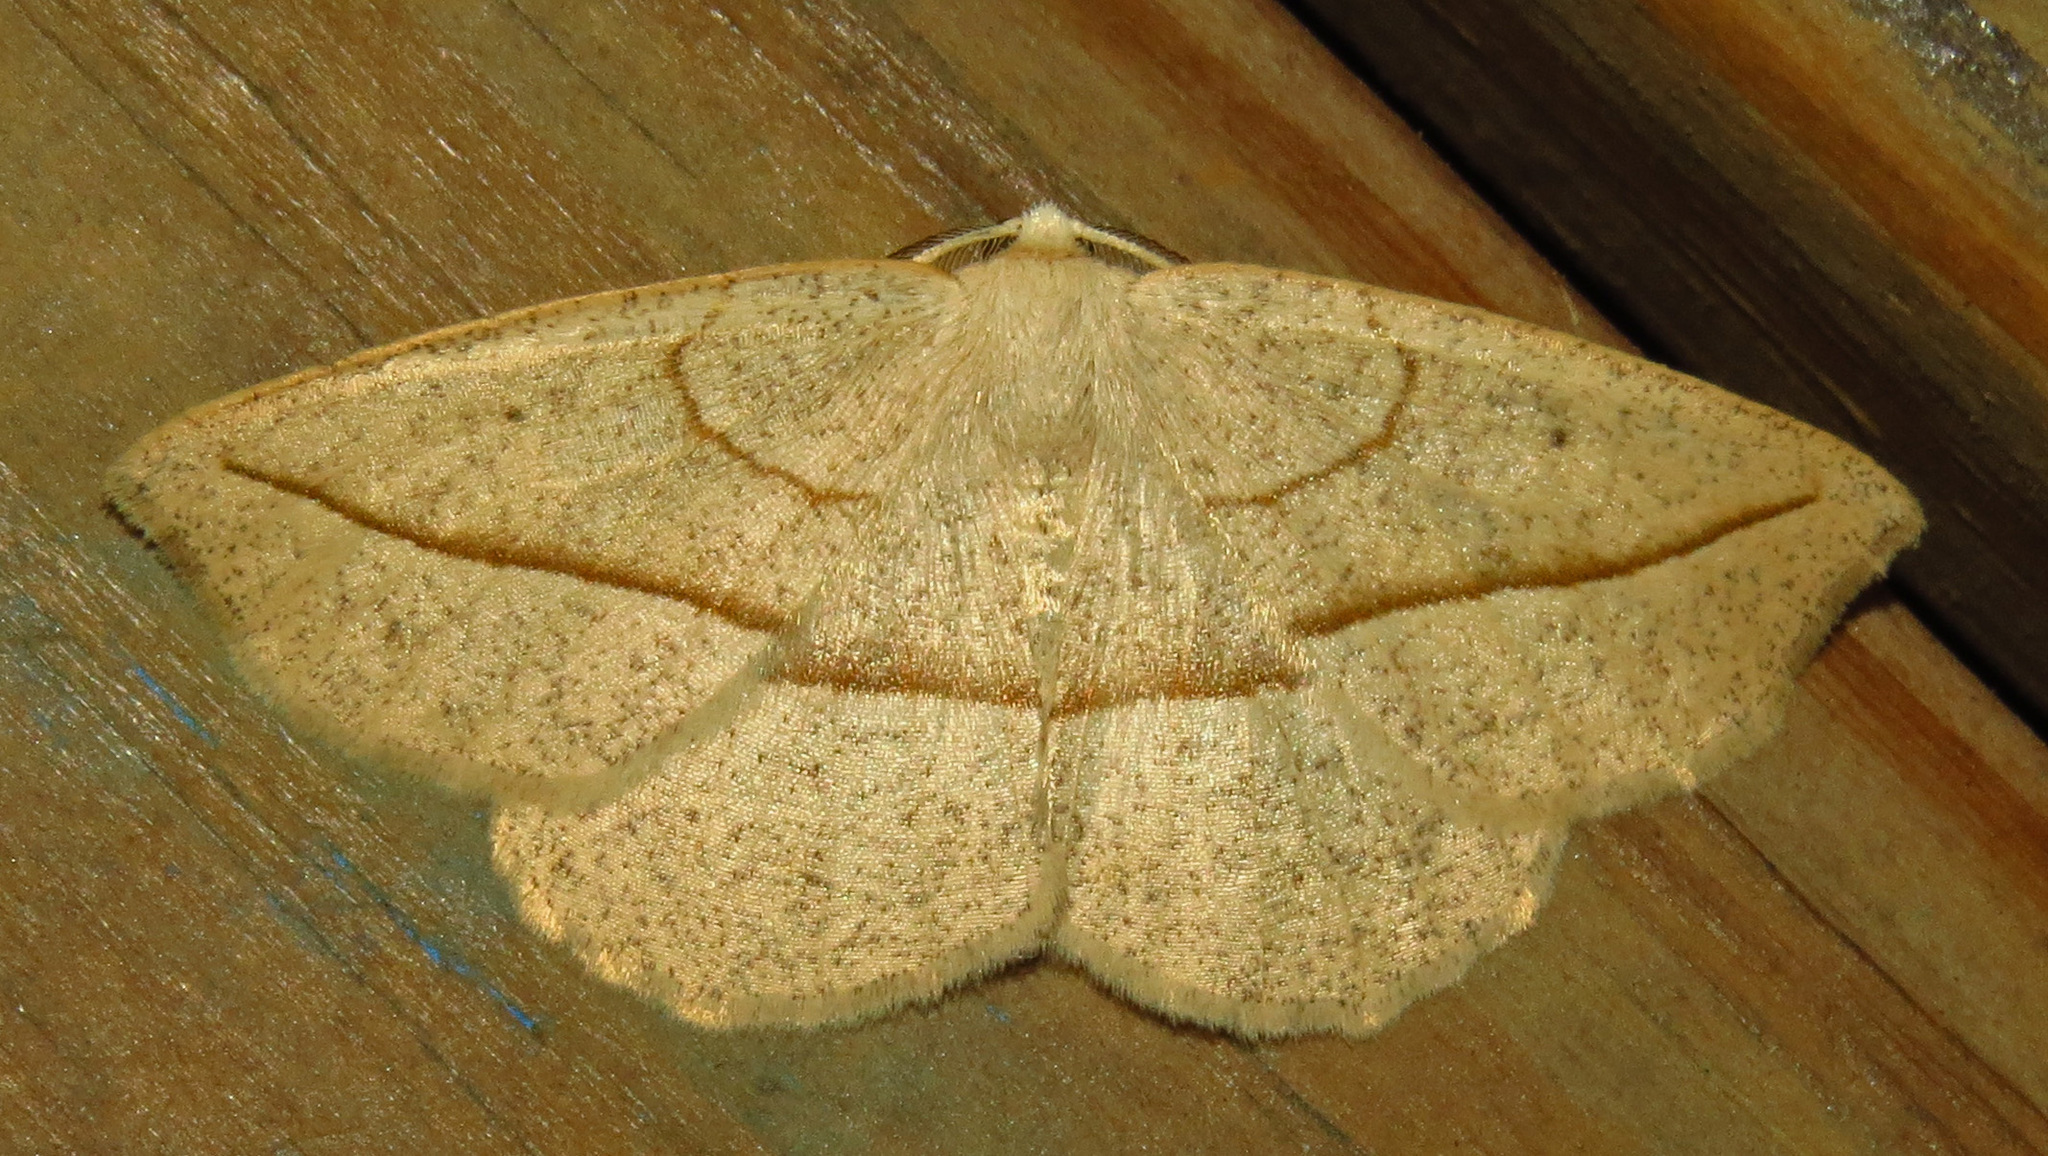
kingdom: Animalia
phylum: Arthropoda
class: Insecta
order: Lepidoptera
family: Geometridae
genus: Eusarca
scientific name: Eusarca confusaria
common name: Confused eusarca
